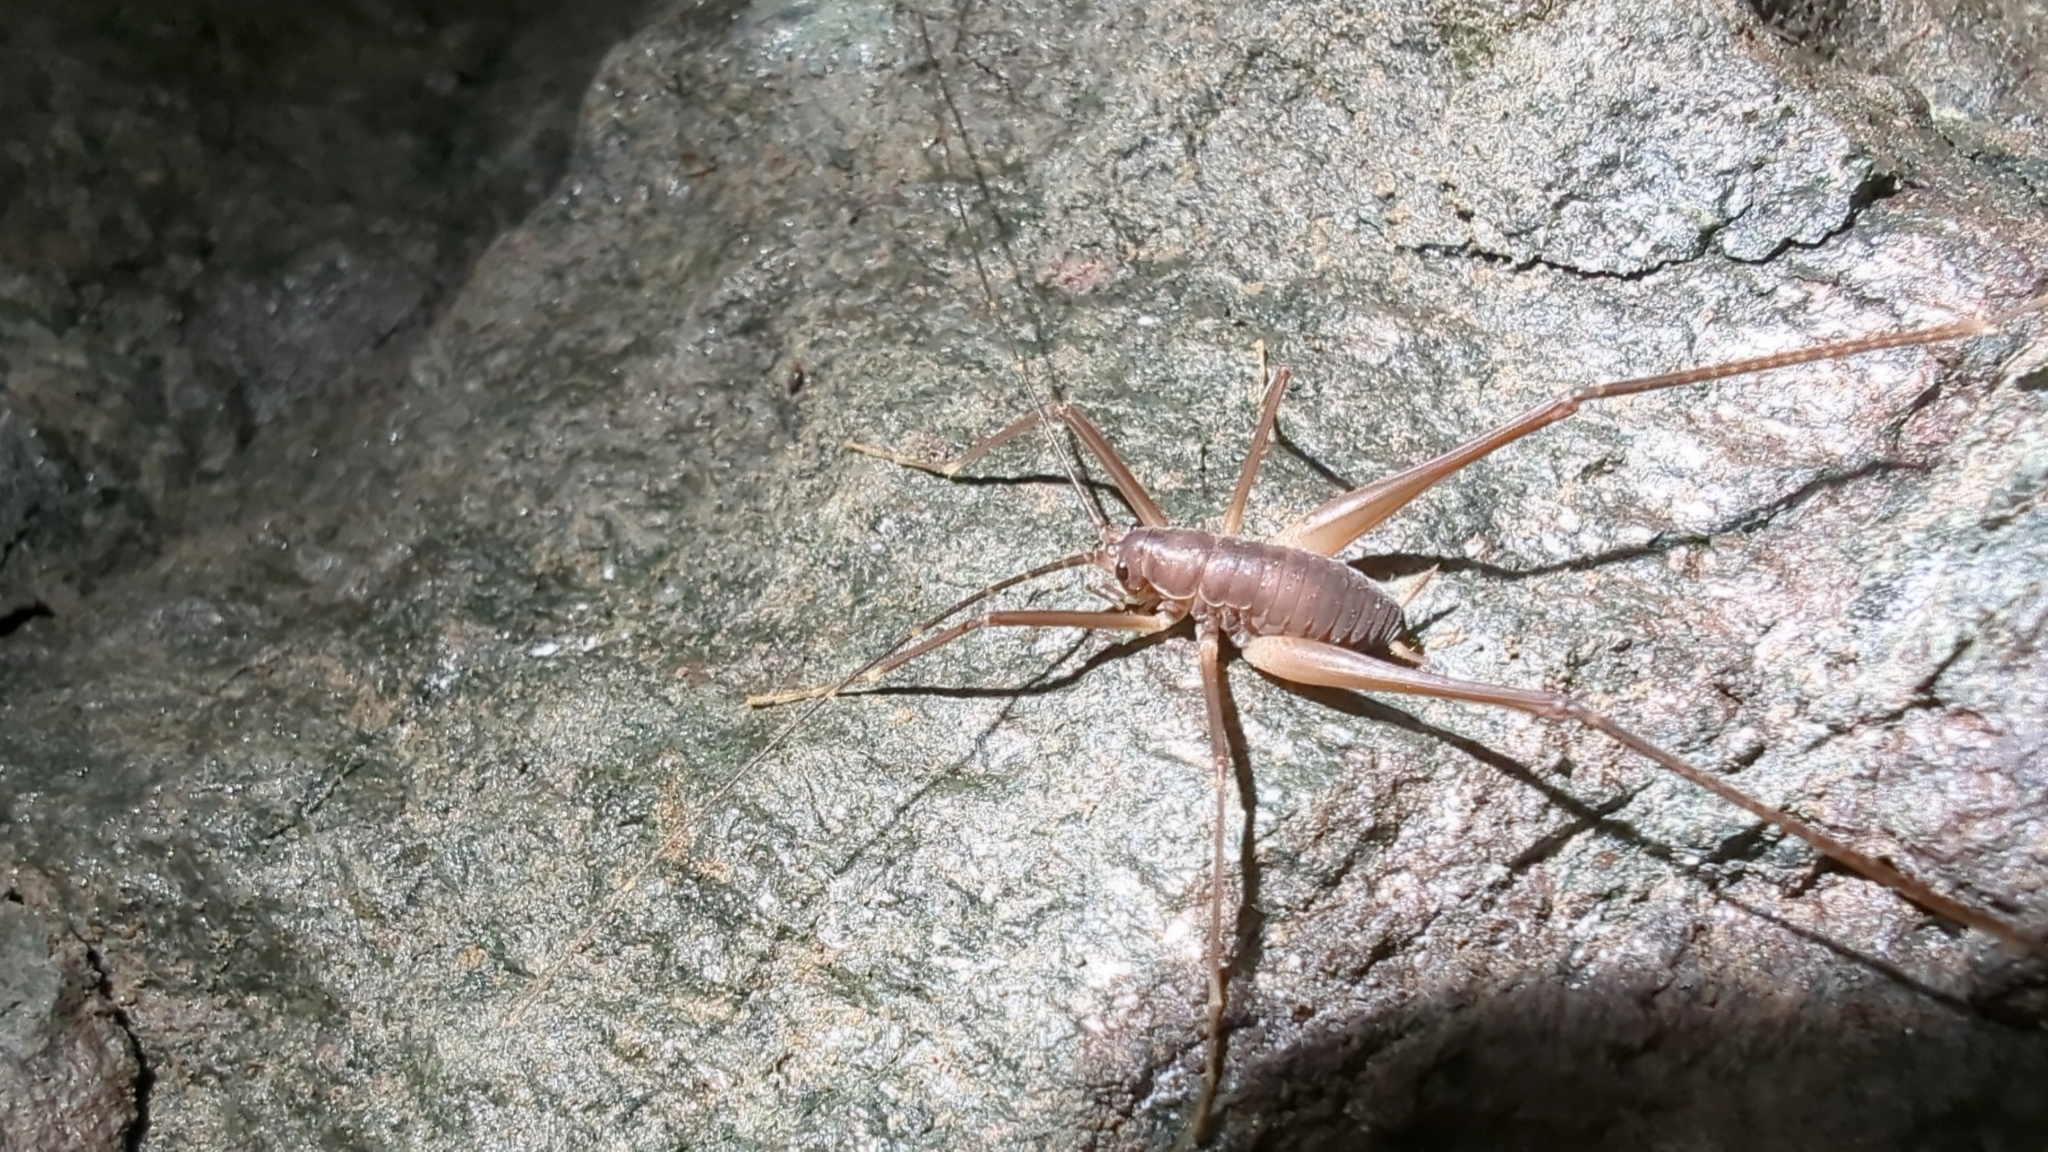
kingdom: Animalia
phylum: Arthropoda
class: Insecta
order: Orthoptera
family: Rhaphidophoridae
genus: Tropidischia
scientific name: Tropidischia xanthostoma
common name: Square-legged camel cricket
